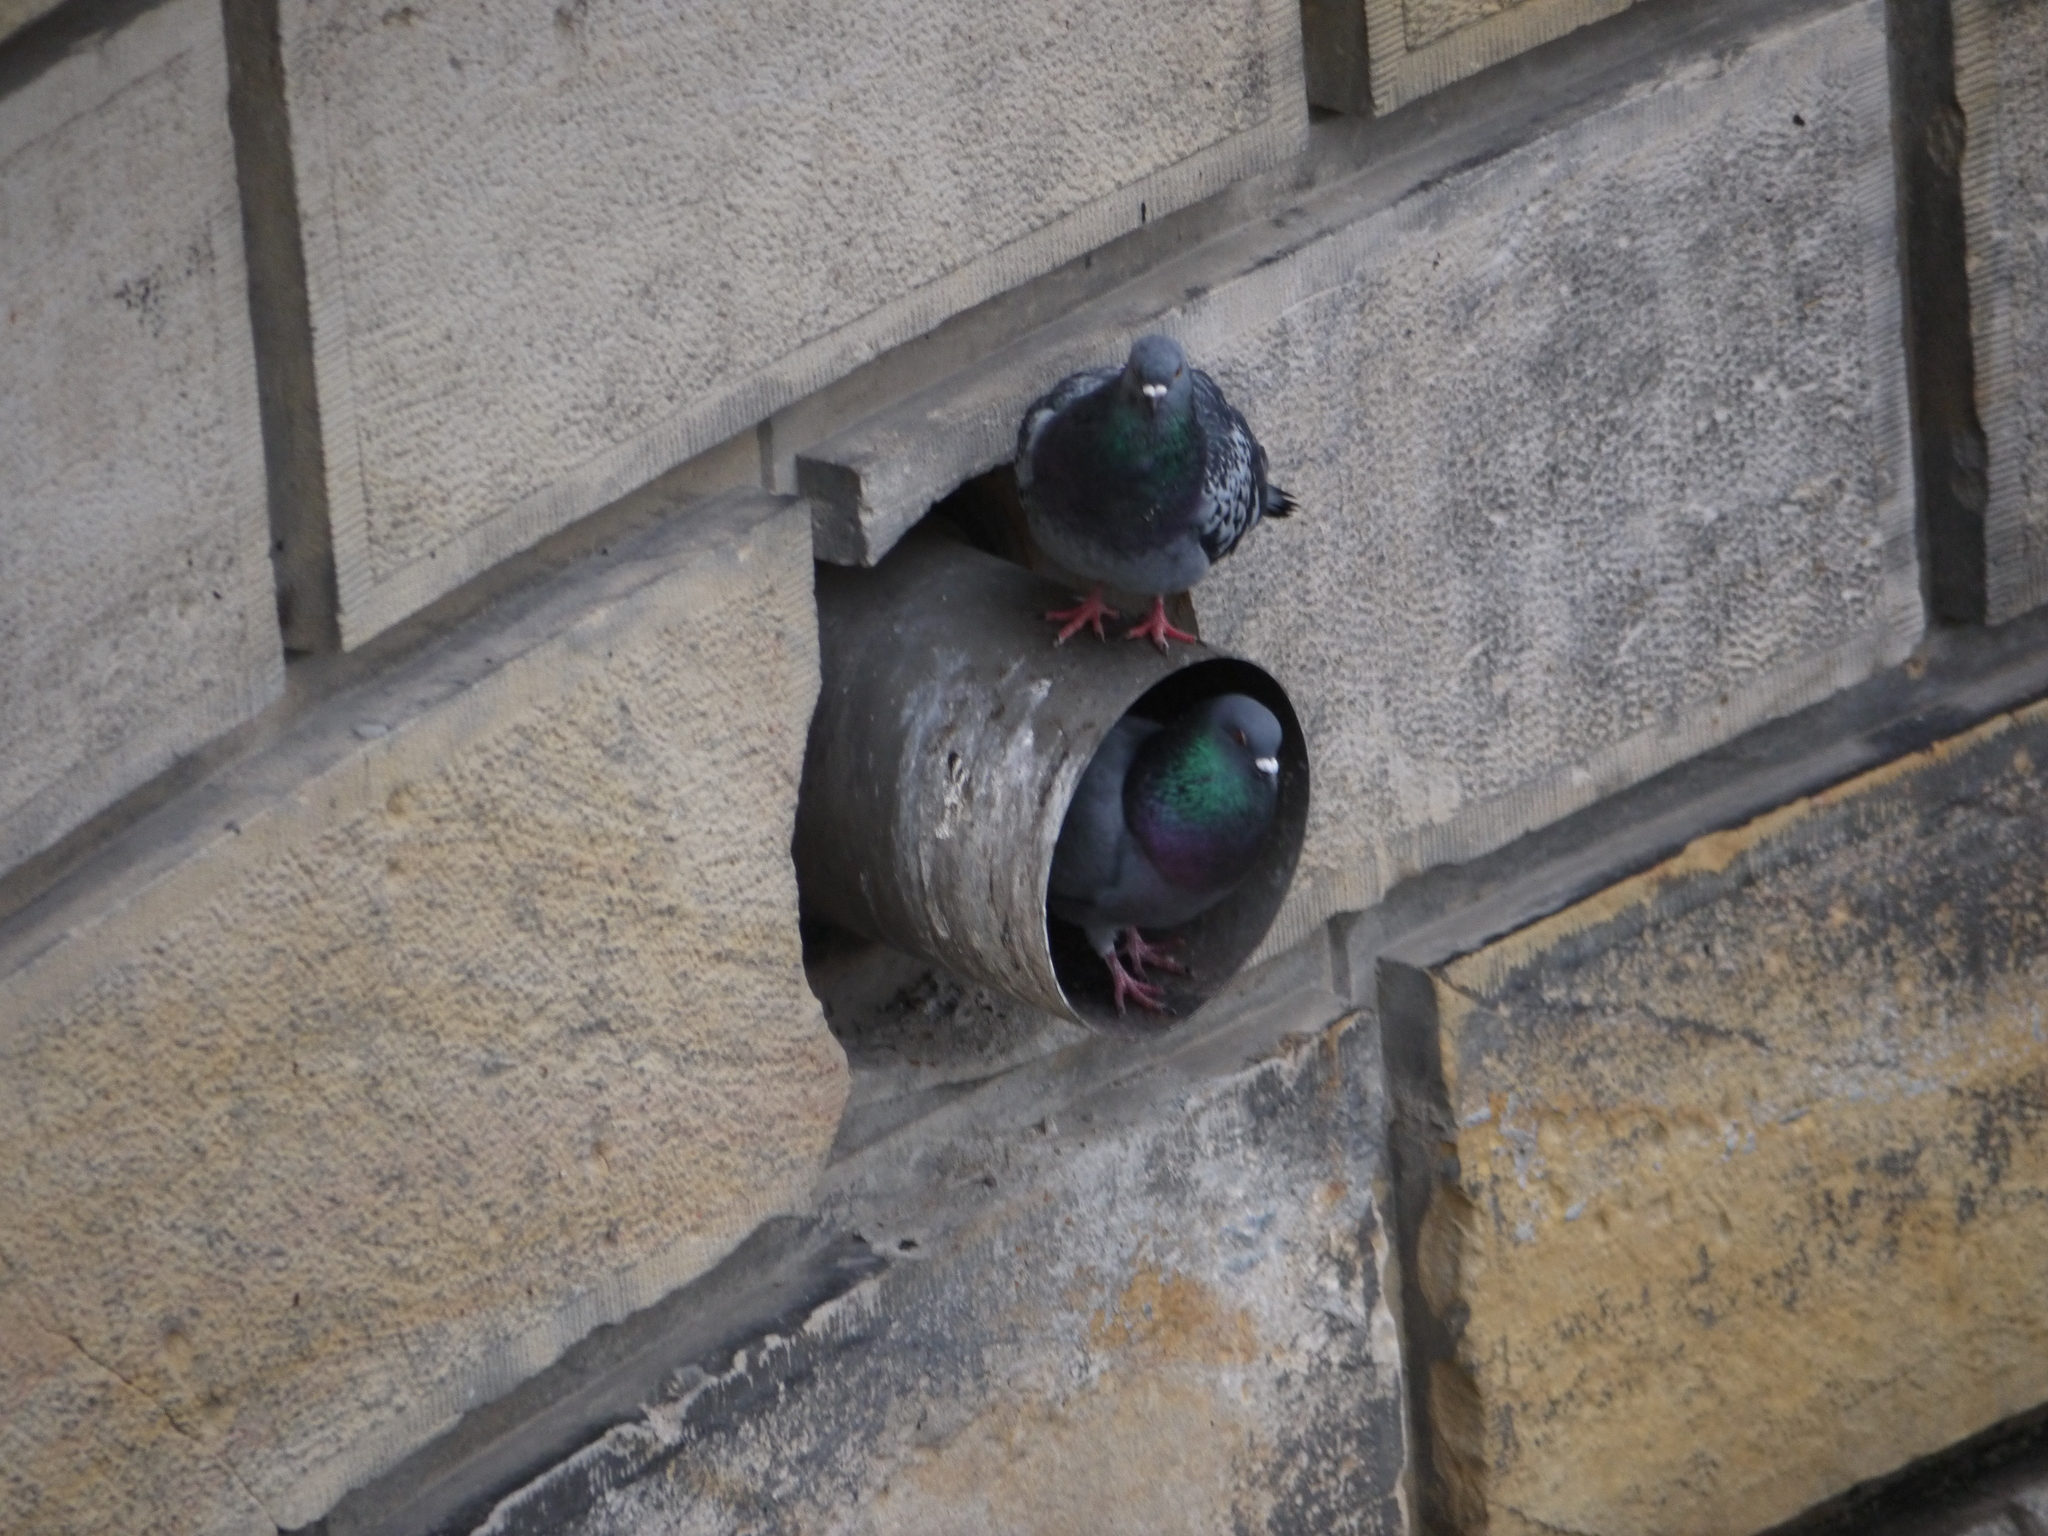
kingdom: Animalia
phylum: Chordata
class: Aves
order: Columbiformes
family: Columbidae
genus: Columba
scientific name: Columba livia
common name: Rock pigeon
